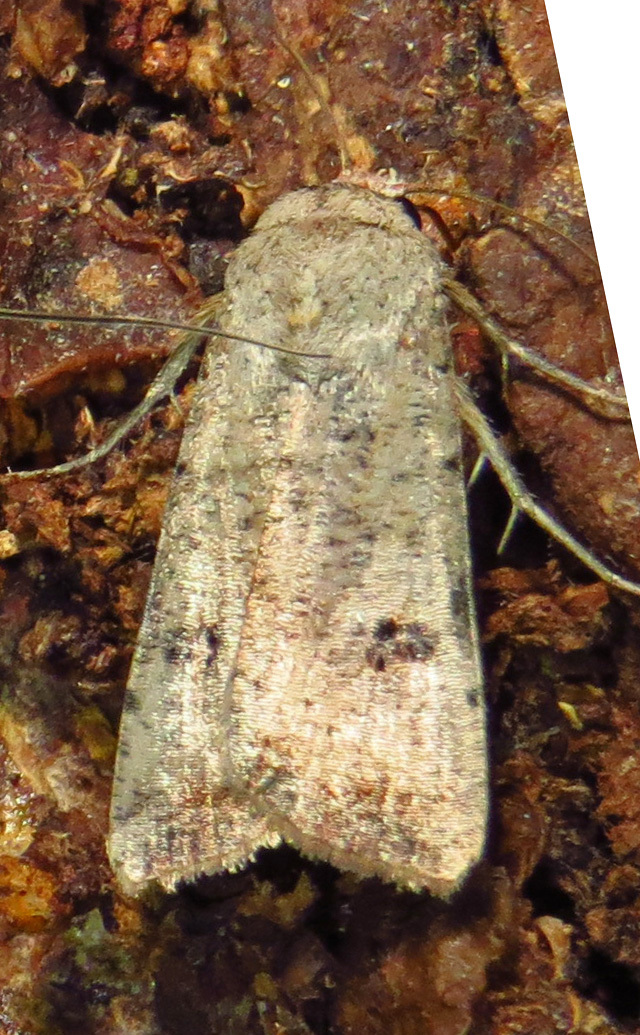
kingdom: Animalia
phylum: Arthropoda
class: Insecta
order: Lepidoptera
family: Noctuidae
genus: Anicla
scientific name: Anicla infecta
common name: Green cutworm
